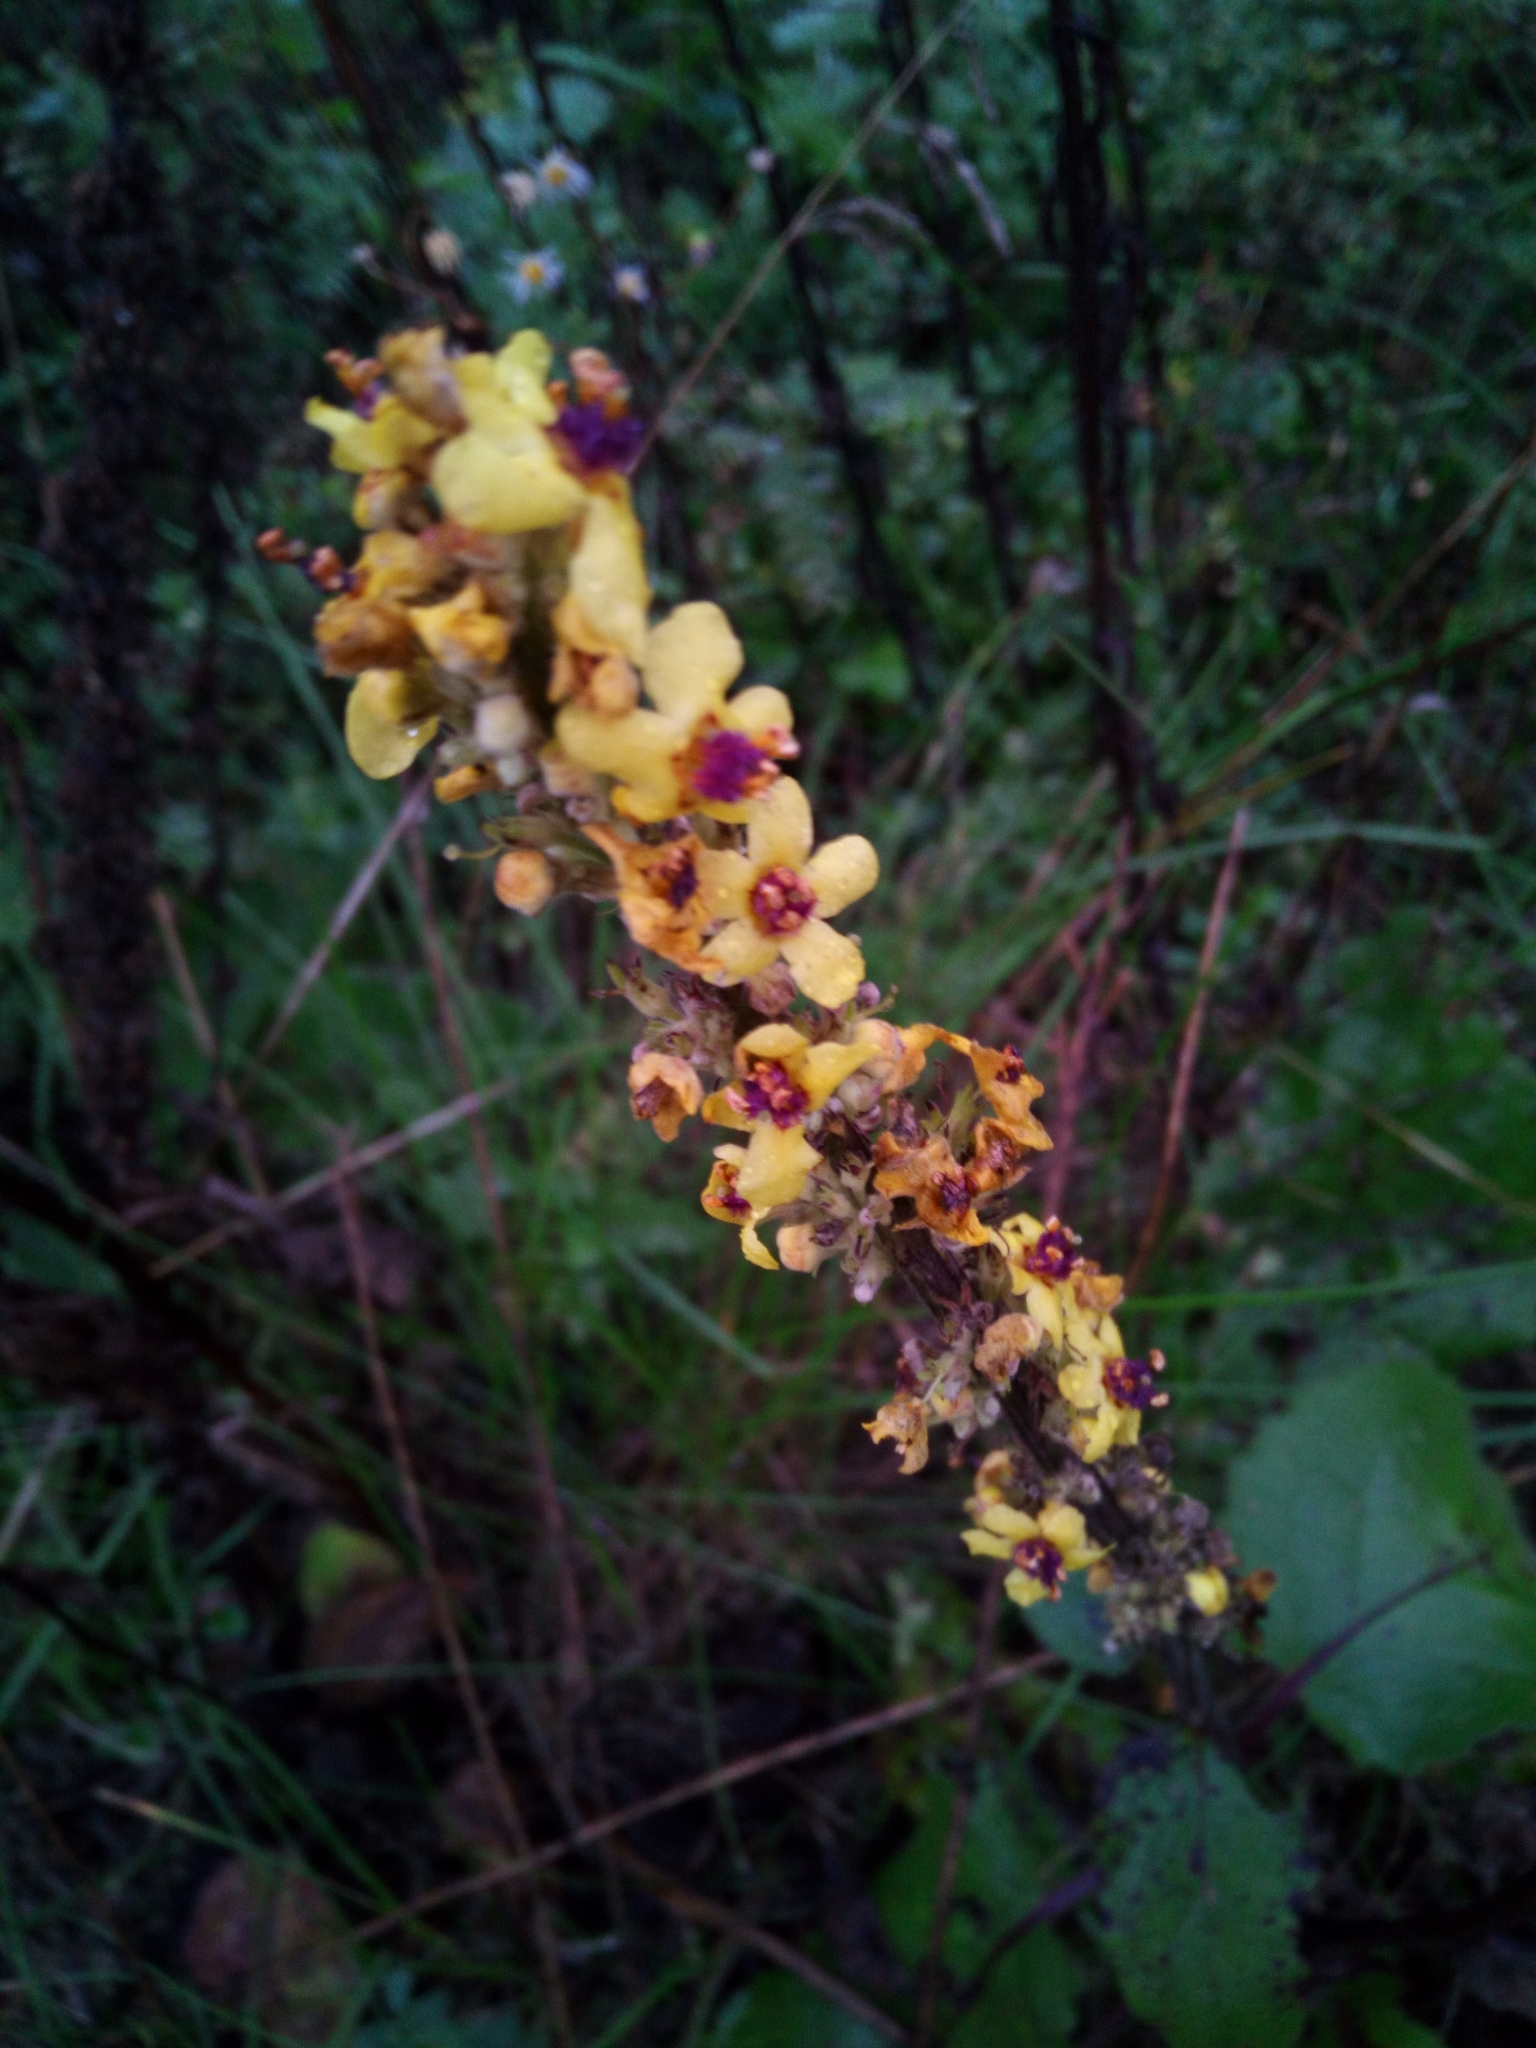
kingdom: Plantae
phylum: Tracheophyta
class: Magnoliopsida
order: Lamiales
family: Scrophulariaceae
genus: Verbascum
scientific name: Verbascum nigrum
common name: Dark mullein
